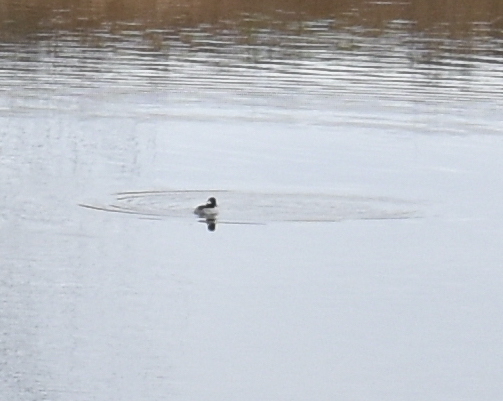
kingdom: Animalia
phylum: Chordata
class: Aves
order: Anseriformes
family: Anatidae
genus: Bucephala
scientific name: Bucephala albeola
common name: Bufflehead
